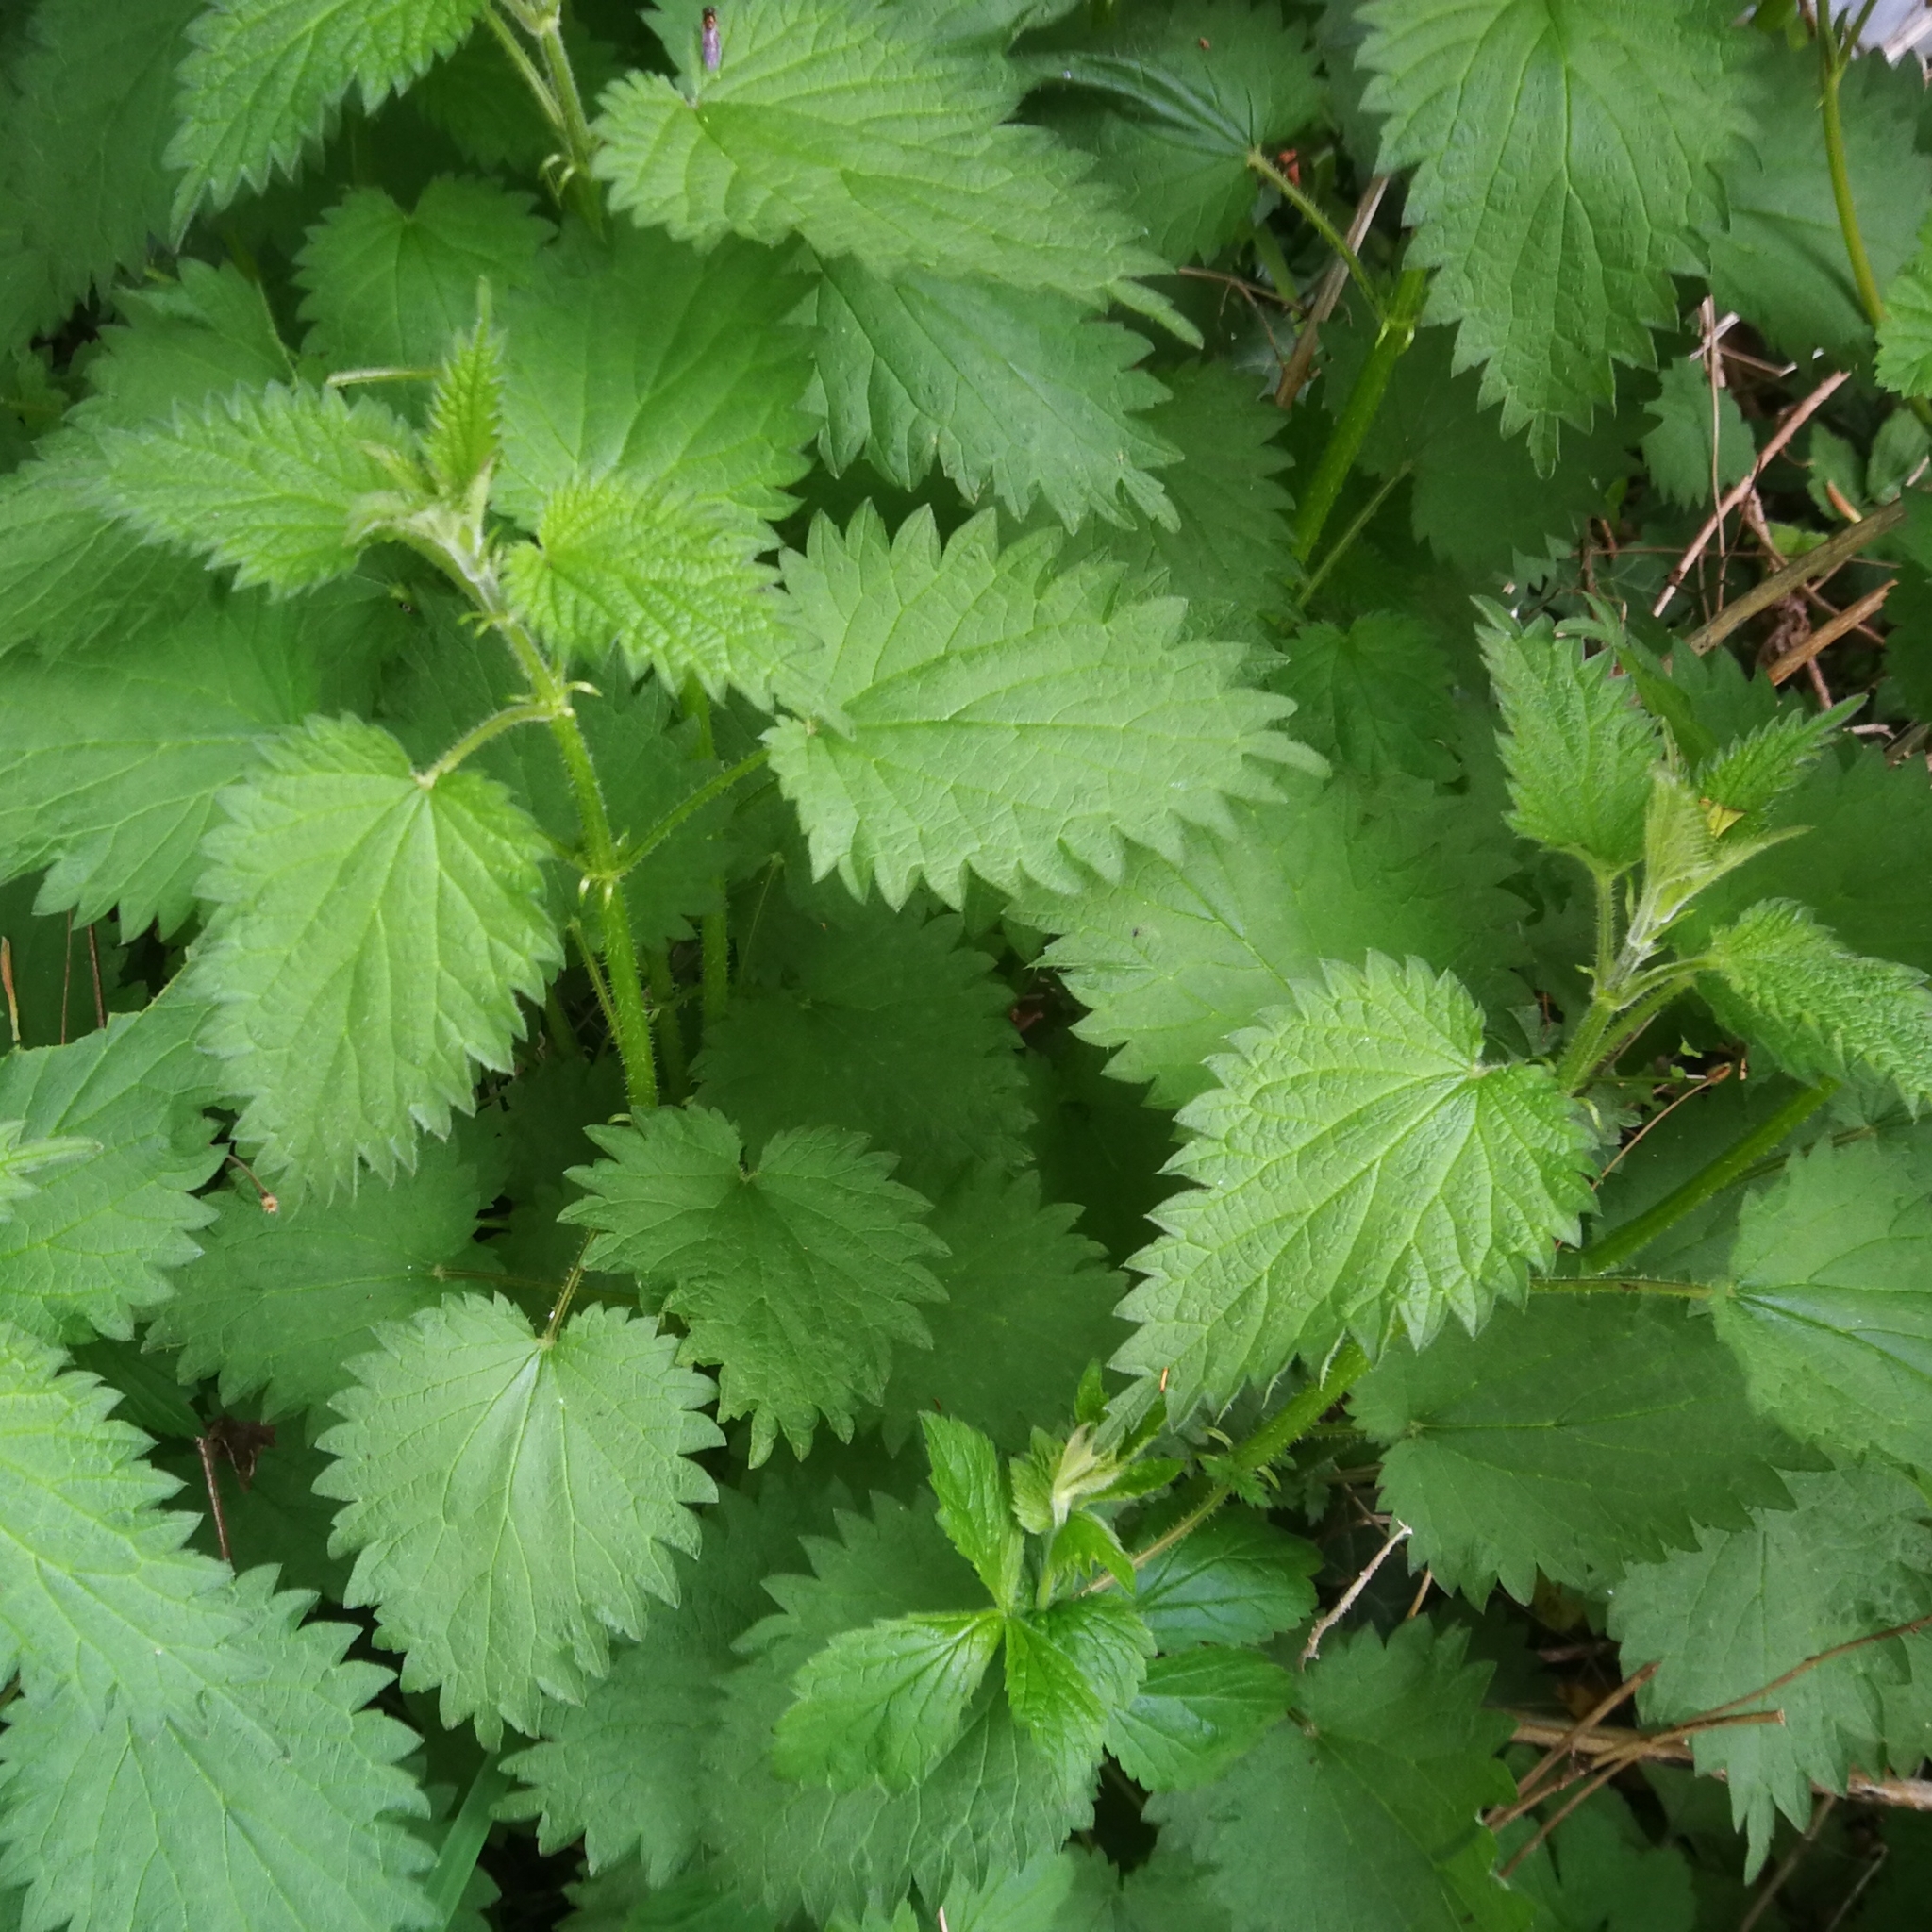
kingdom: Plantae
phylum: Tracheophyta
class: Magnoliopsida
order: Rosales
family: Urticaceae
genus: Urtica
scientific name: Urtica dioica
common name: Common nettle
